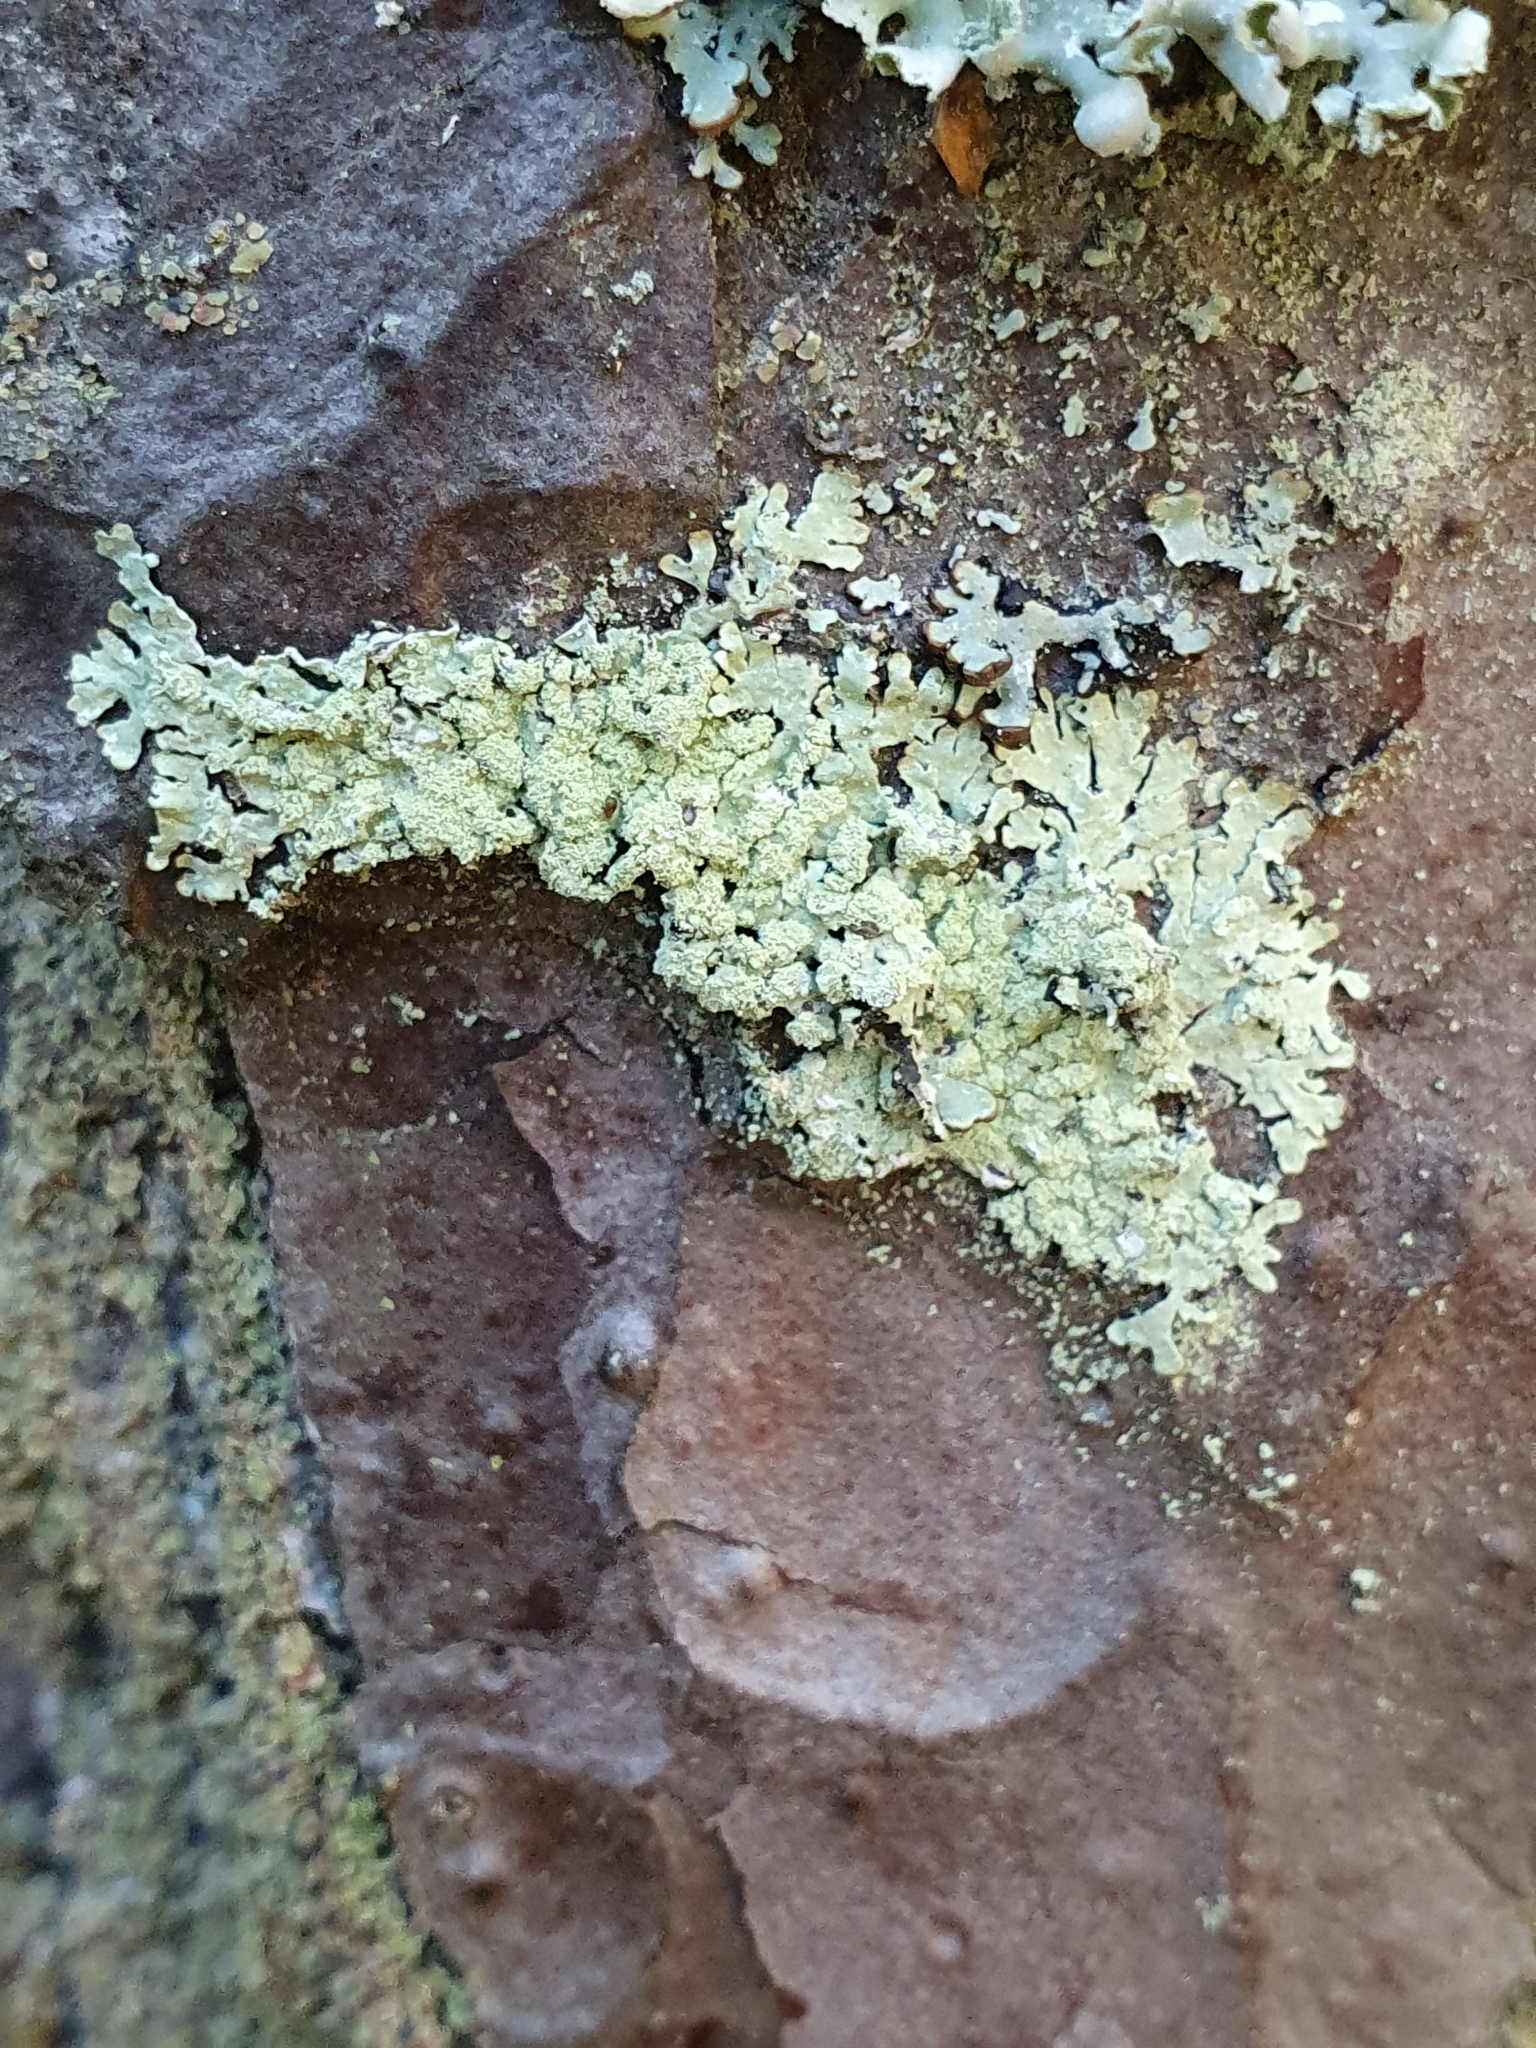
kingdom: Fungi
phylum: Ascomycota
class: Lecanoromycetes
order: Lecanorales
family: Parmeliaceae
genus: Parmeliopsis
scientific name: Parmeliopsis ambigua
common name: Green starburst lichen
